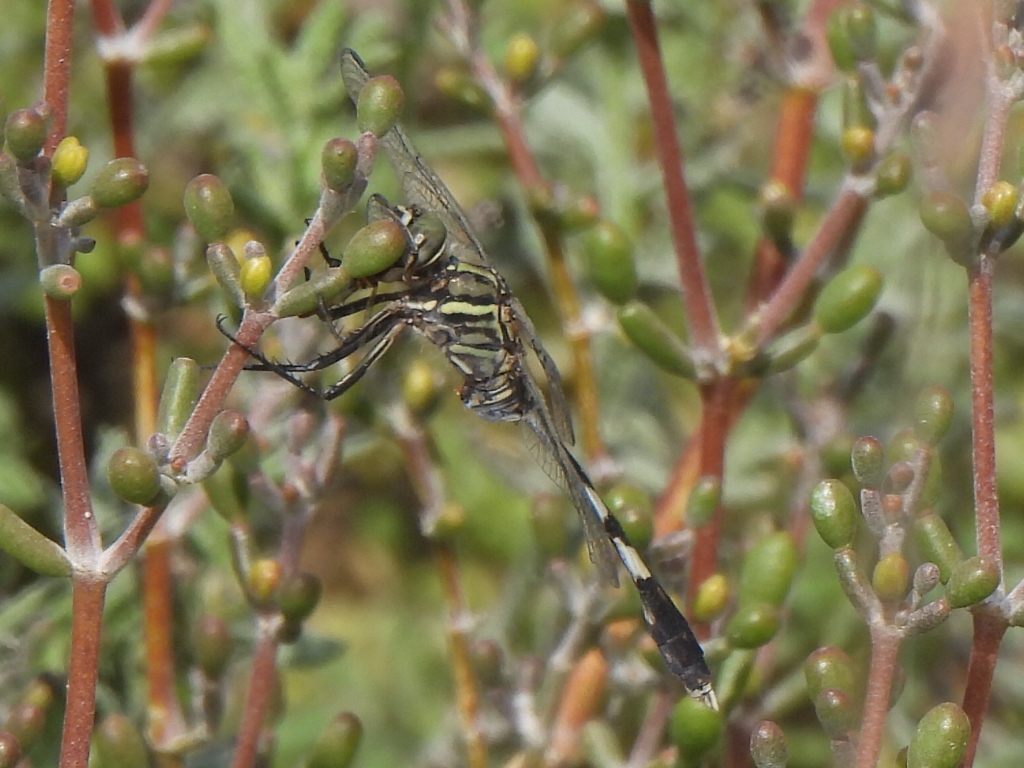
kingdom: Animalia
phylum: Arthropoda
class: Insecta
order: Odonata
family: Libellulidae
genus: Orthetrum
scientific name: Orthetrum sabina
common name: Slender skimmer
